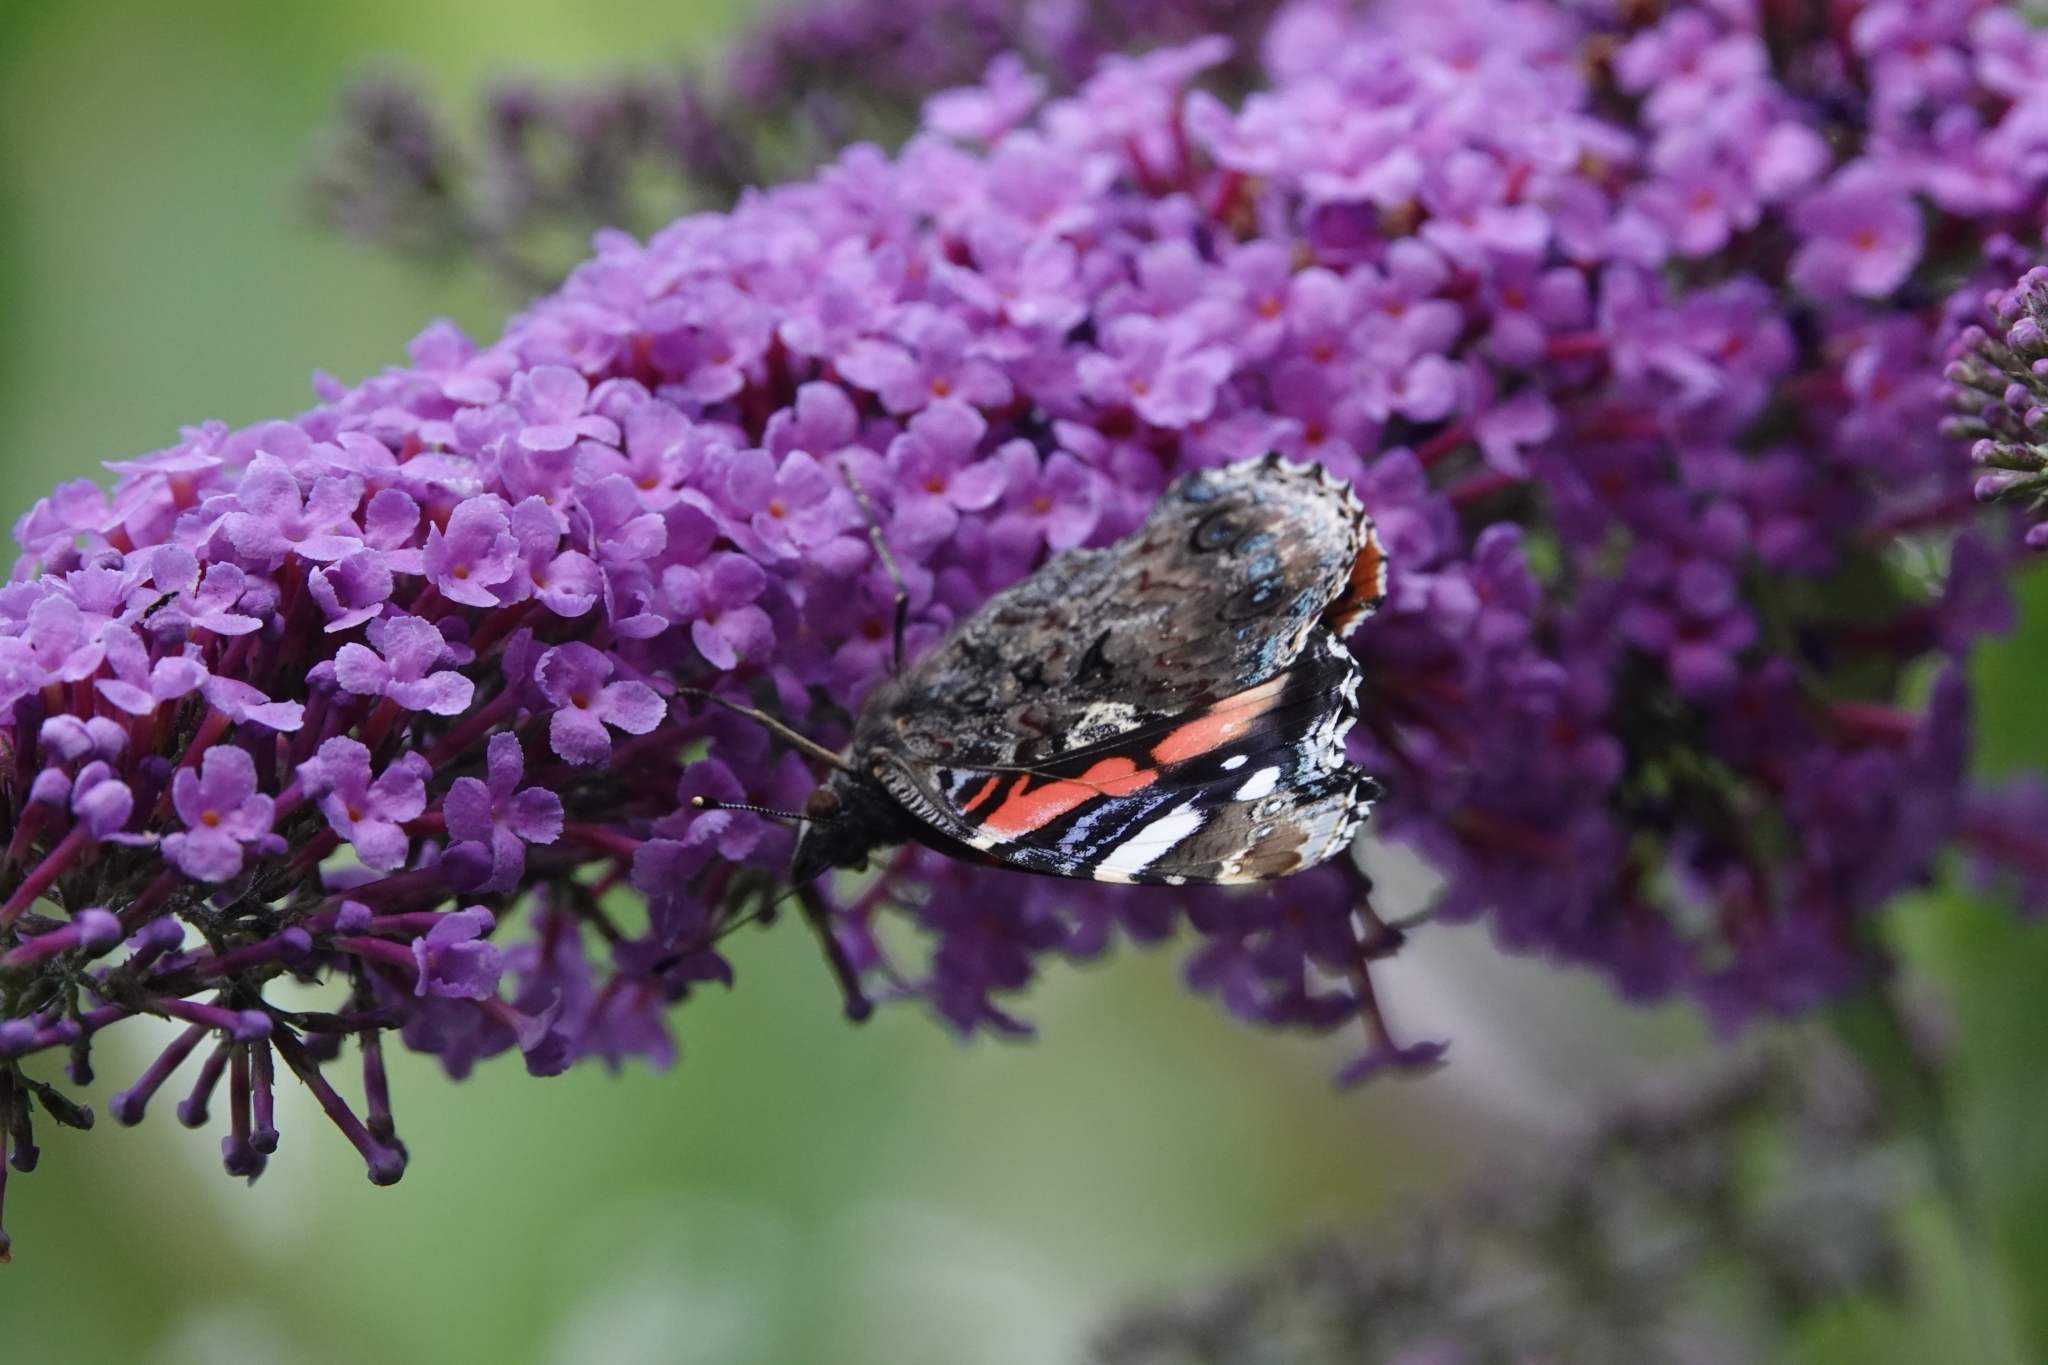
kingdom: Animalia
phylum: Arthropoda
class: Insecta
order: Lepidoptera
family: Nymphalidae
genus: Vanessa
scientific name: Vanessa atalanta
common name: Red admiral
